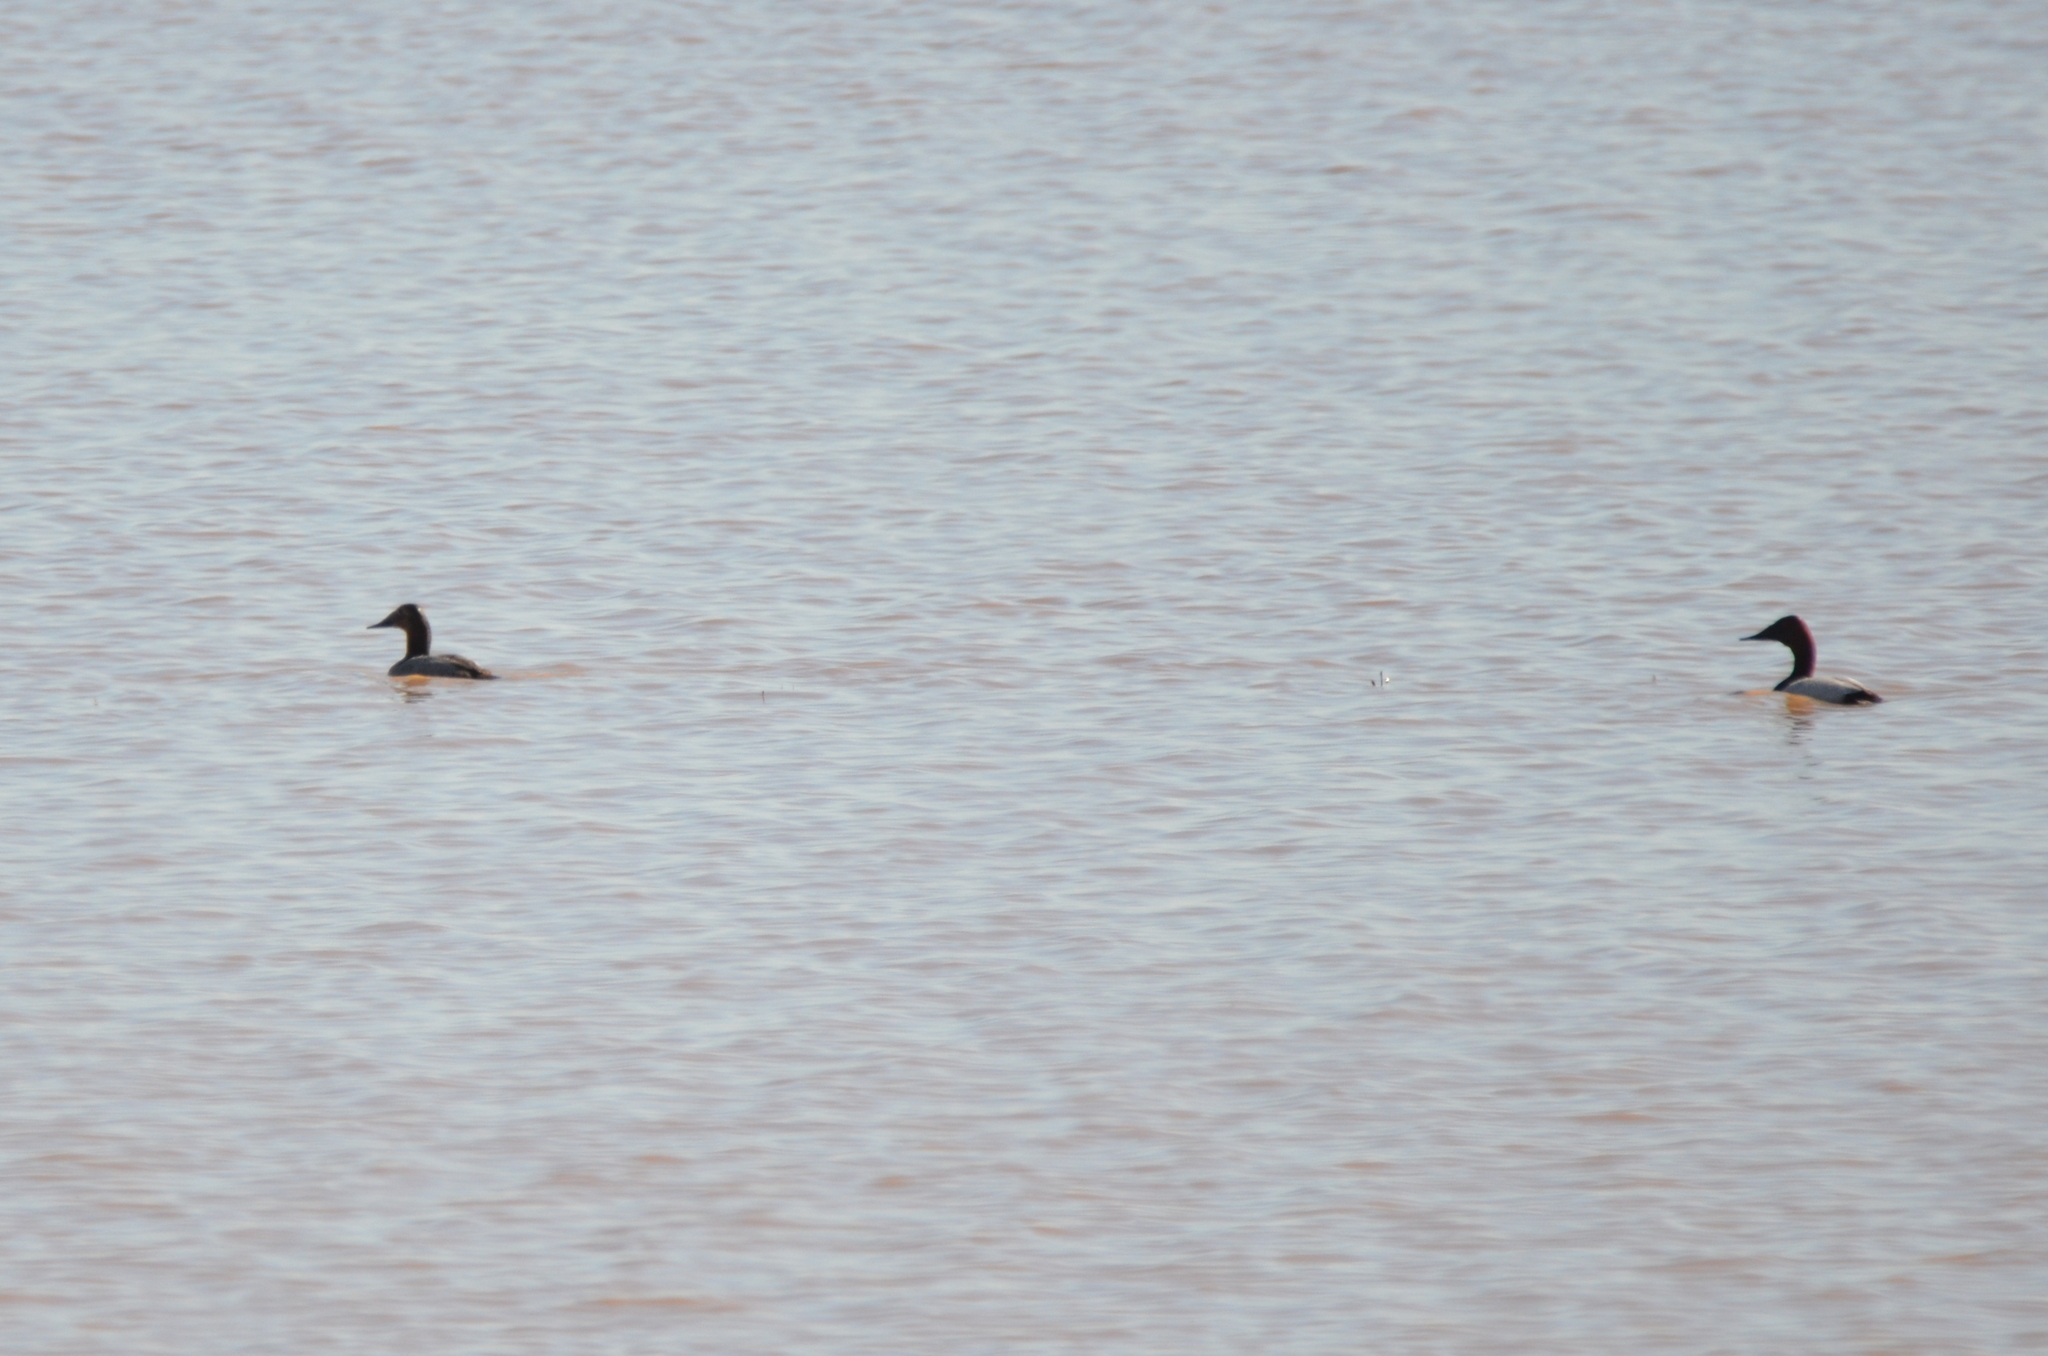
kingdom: Animalia
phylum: Chordata
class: Aves
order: Anseriformes
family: Anatidae
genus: Aythya
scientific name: Aythya valisineria
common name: Canvasback
